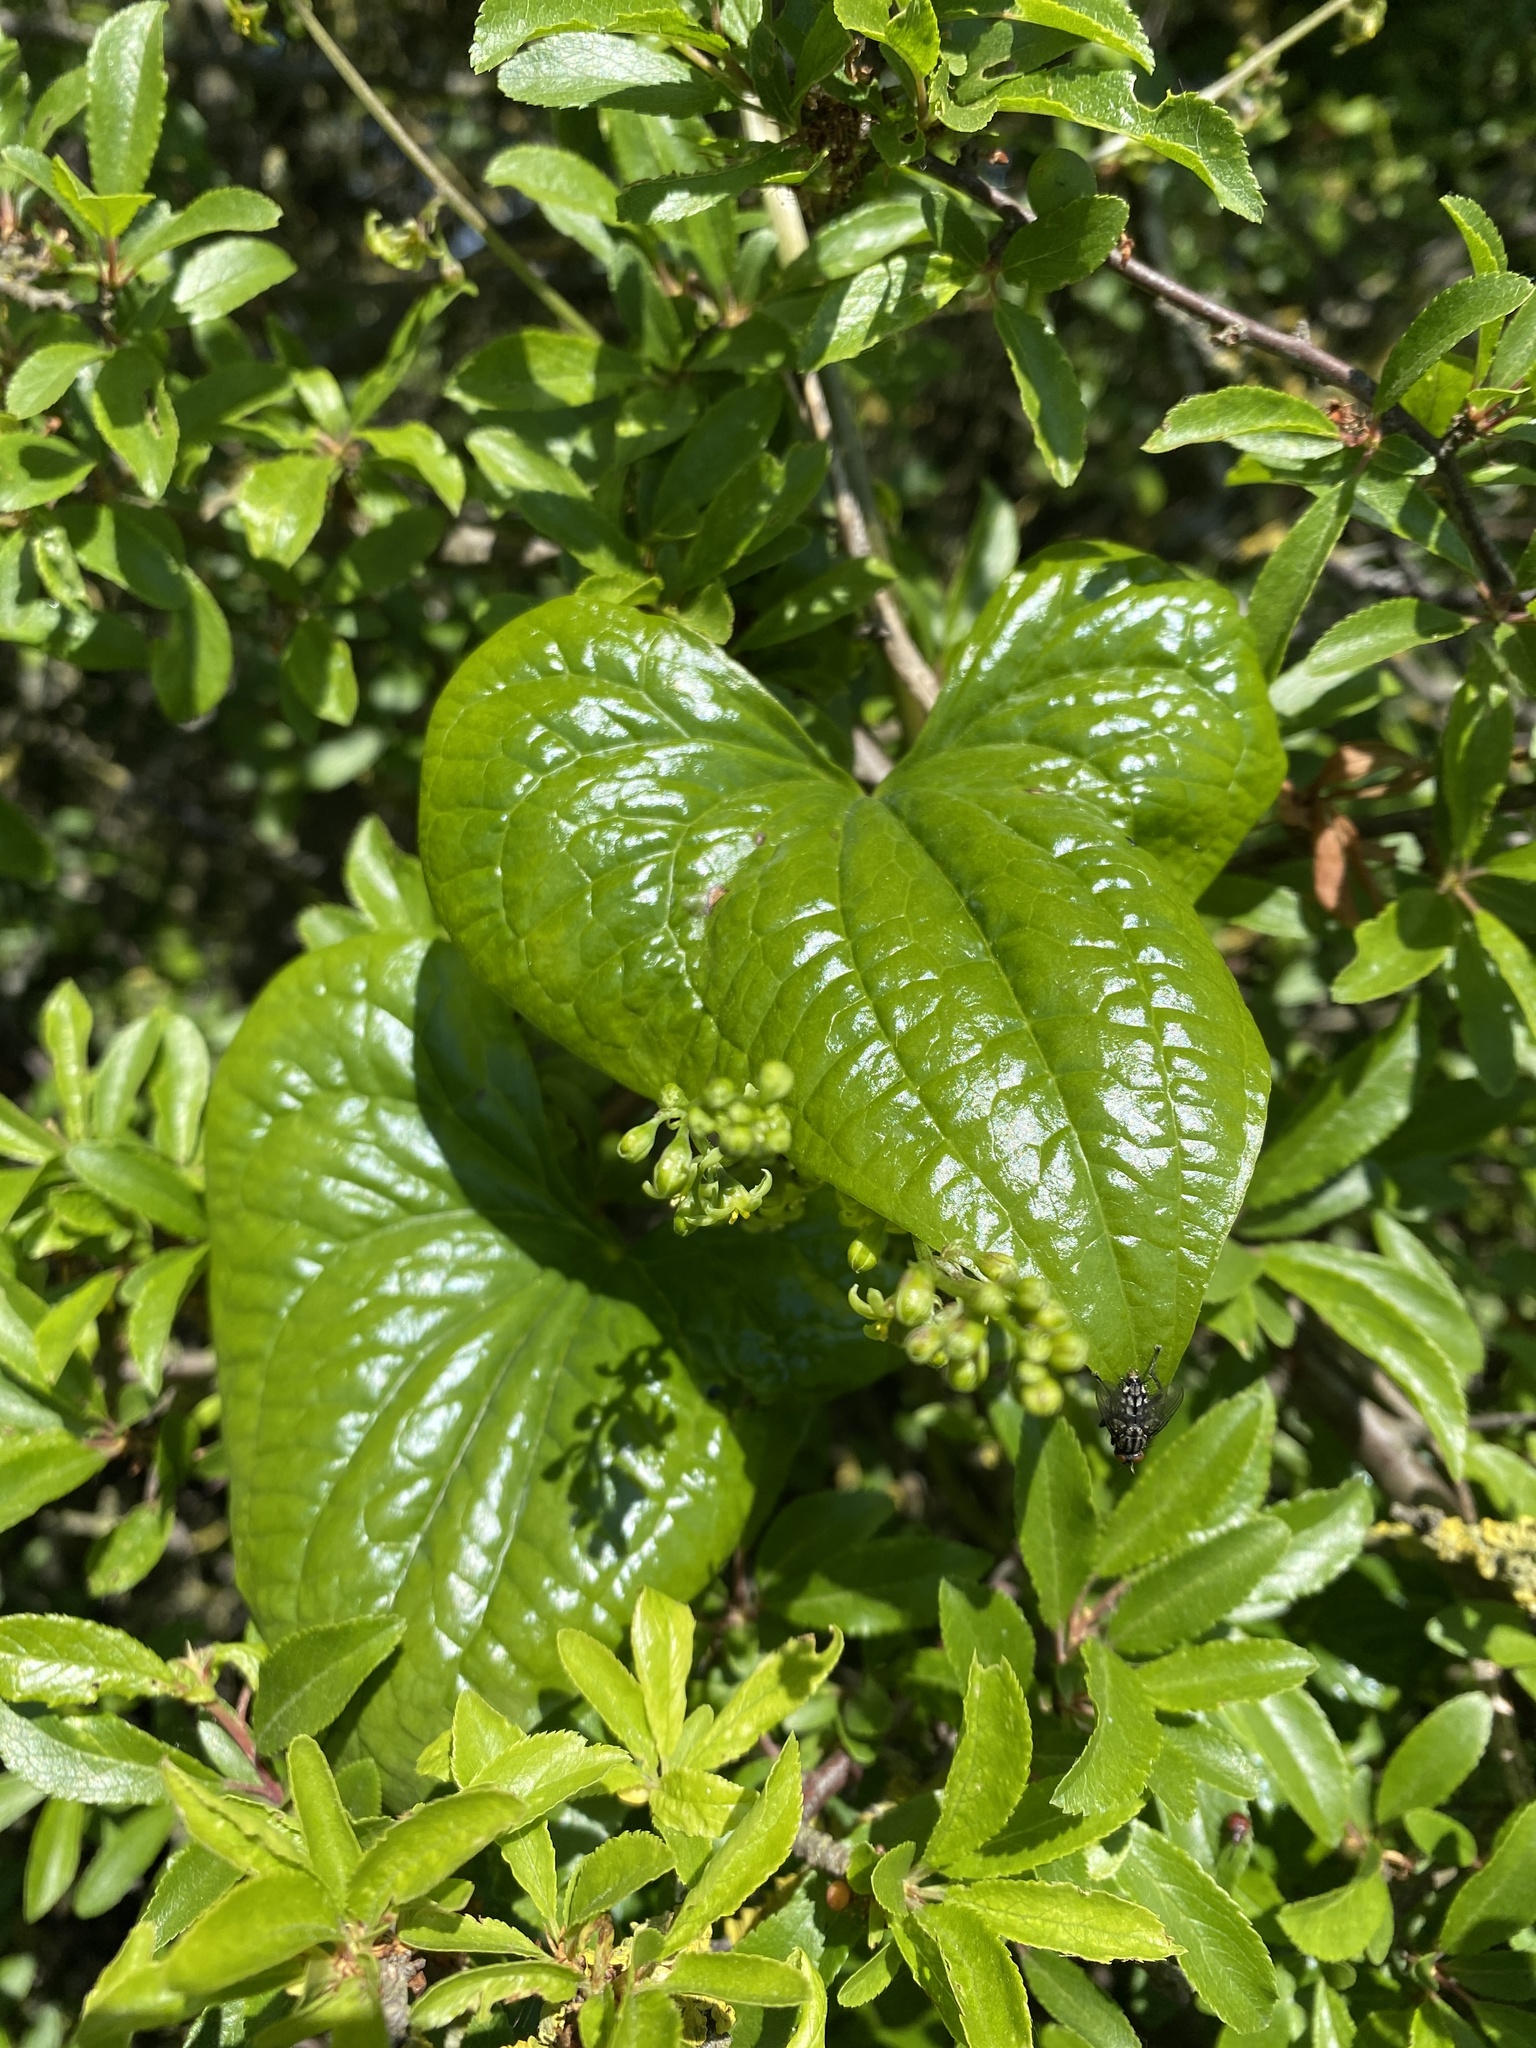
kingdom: Plantae
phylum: Tracheophyta
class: Liliopsida
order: Dioscoreales
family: Dioscoreaceae
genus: Dioscorea
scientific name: Dioscorea communis
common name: Black-bindweed
